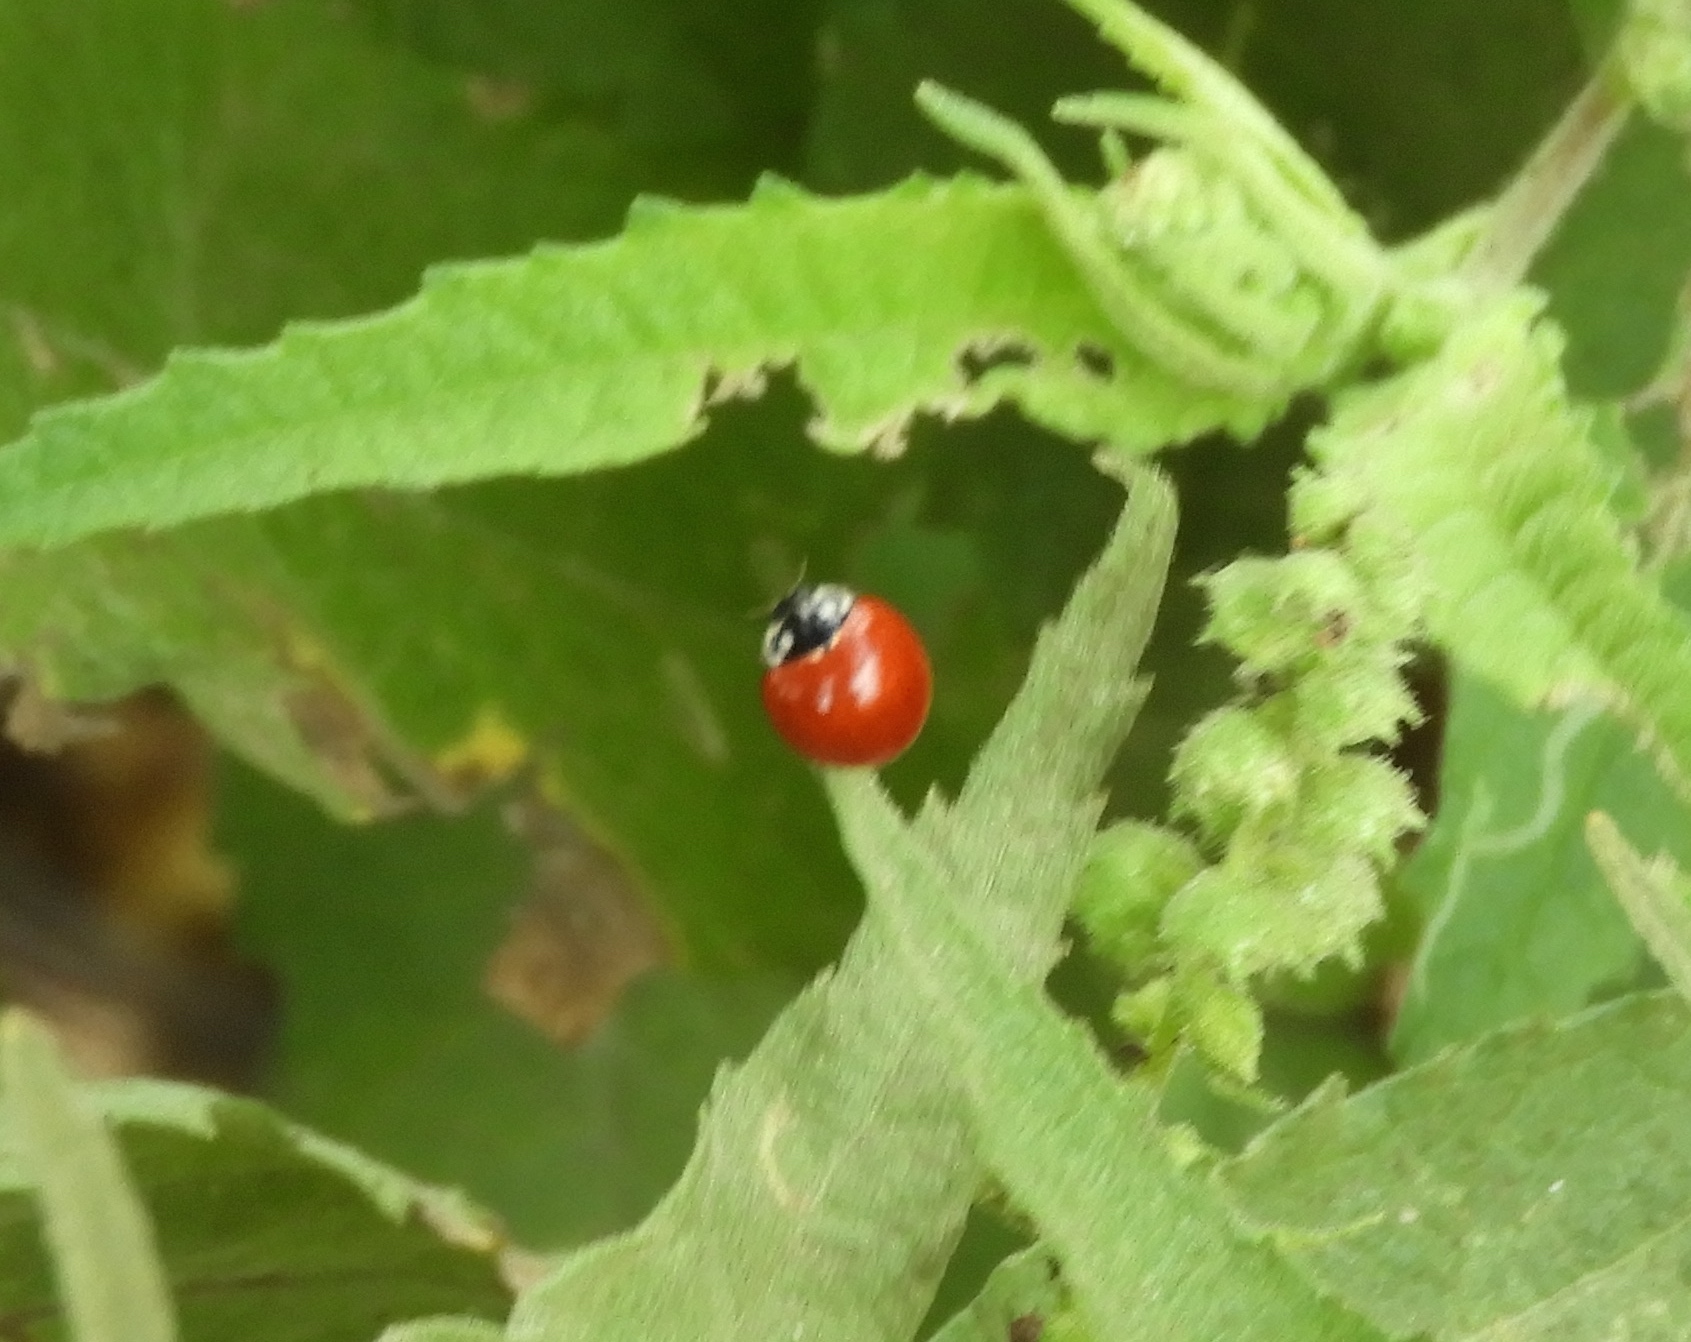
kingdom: Animalia
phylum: Arthropoda
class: Insecta
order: Coleoptera
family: Coccinellidae
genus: Cycloneda
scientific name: Cycloneda sanguinea
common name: Ladybird beetle
